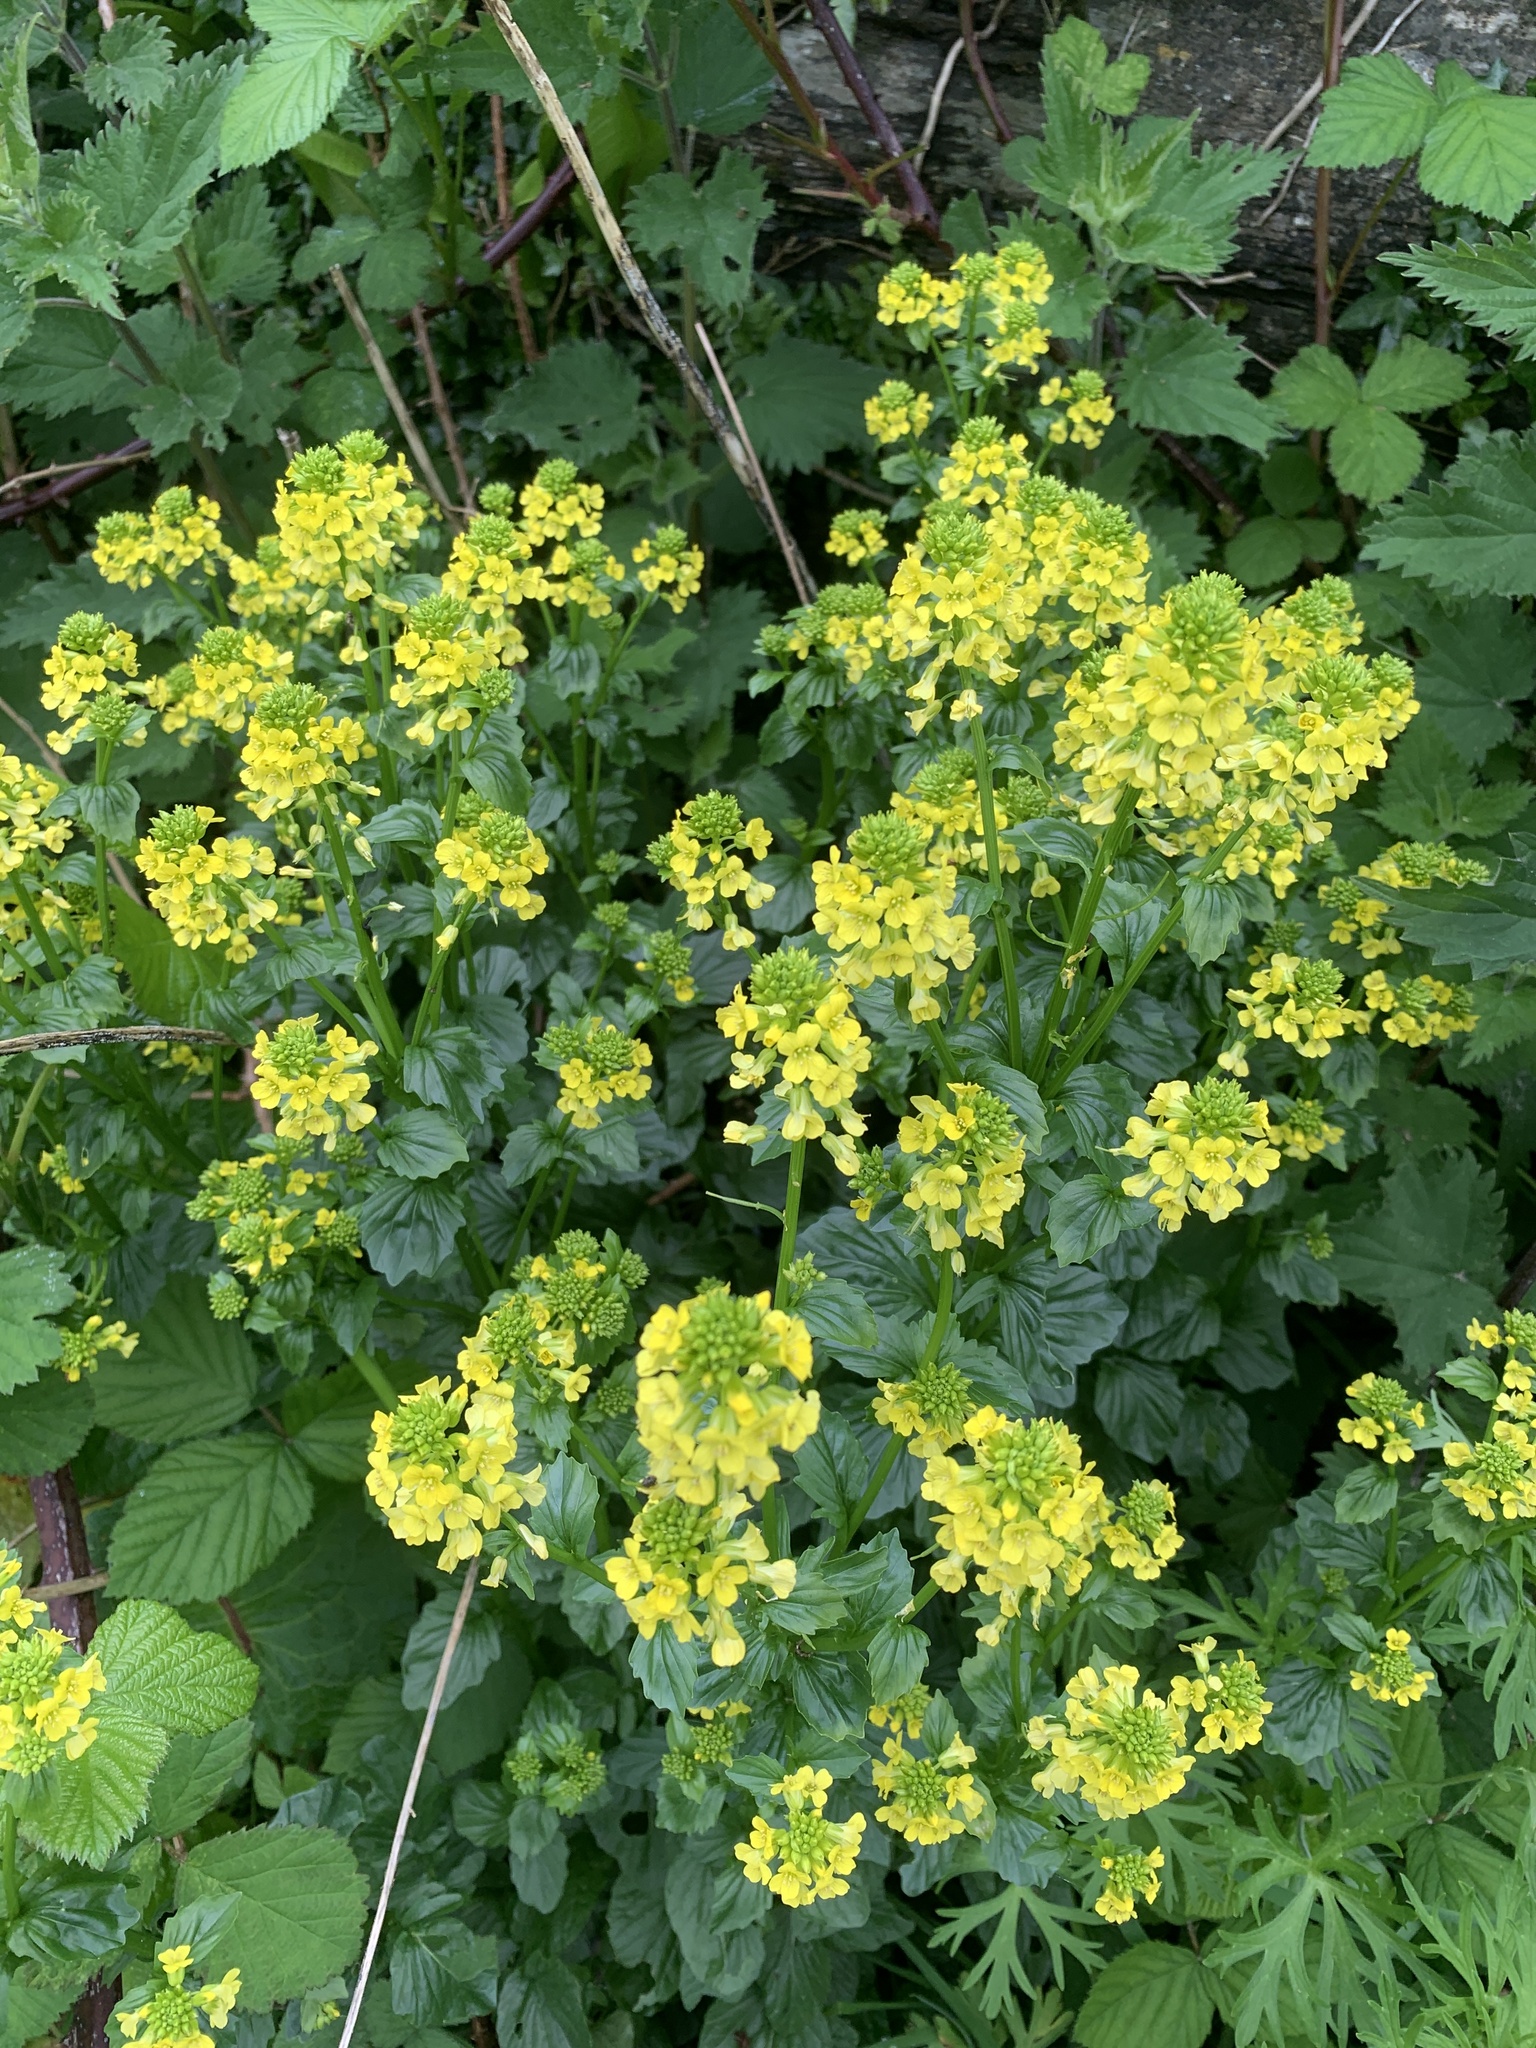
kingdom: Plantae
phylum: Tracheophyta
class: Magnoliopsida
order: Brassicales
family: Brassicaceae
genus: Barbarea
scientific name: Barbarea vulgaris
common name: Cressy-greens
